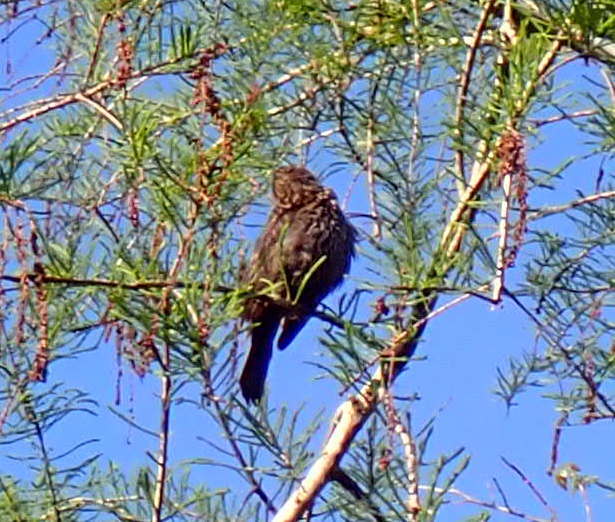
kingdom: Animalia
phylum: Chordata
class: Aves
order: Passeriformes
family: Icteridae
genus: Agelaius
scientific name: Agelaius phoeniceus
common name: Red-winged blackbird
